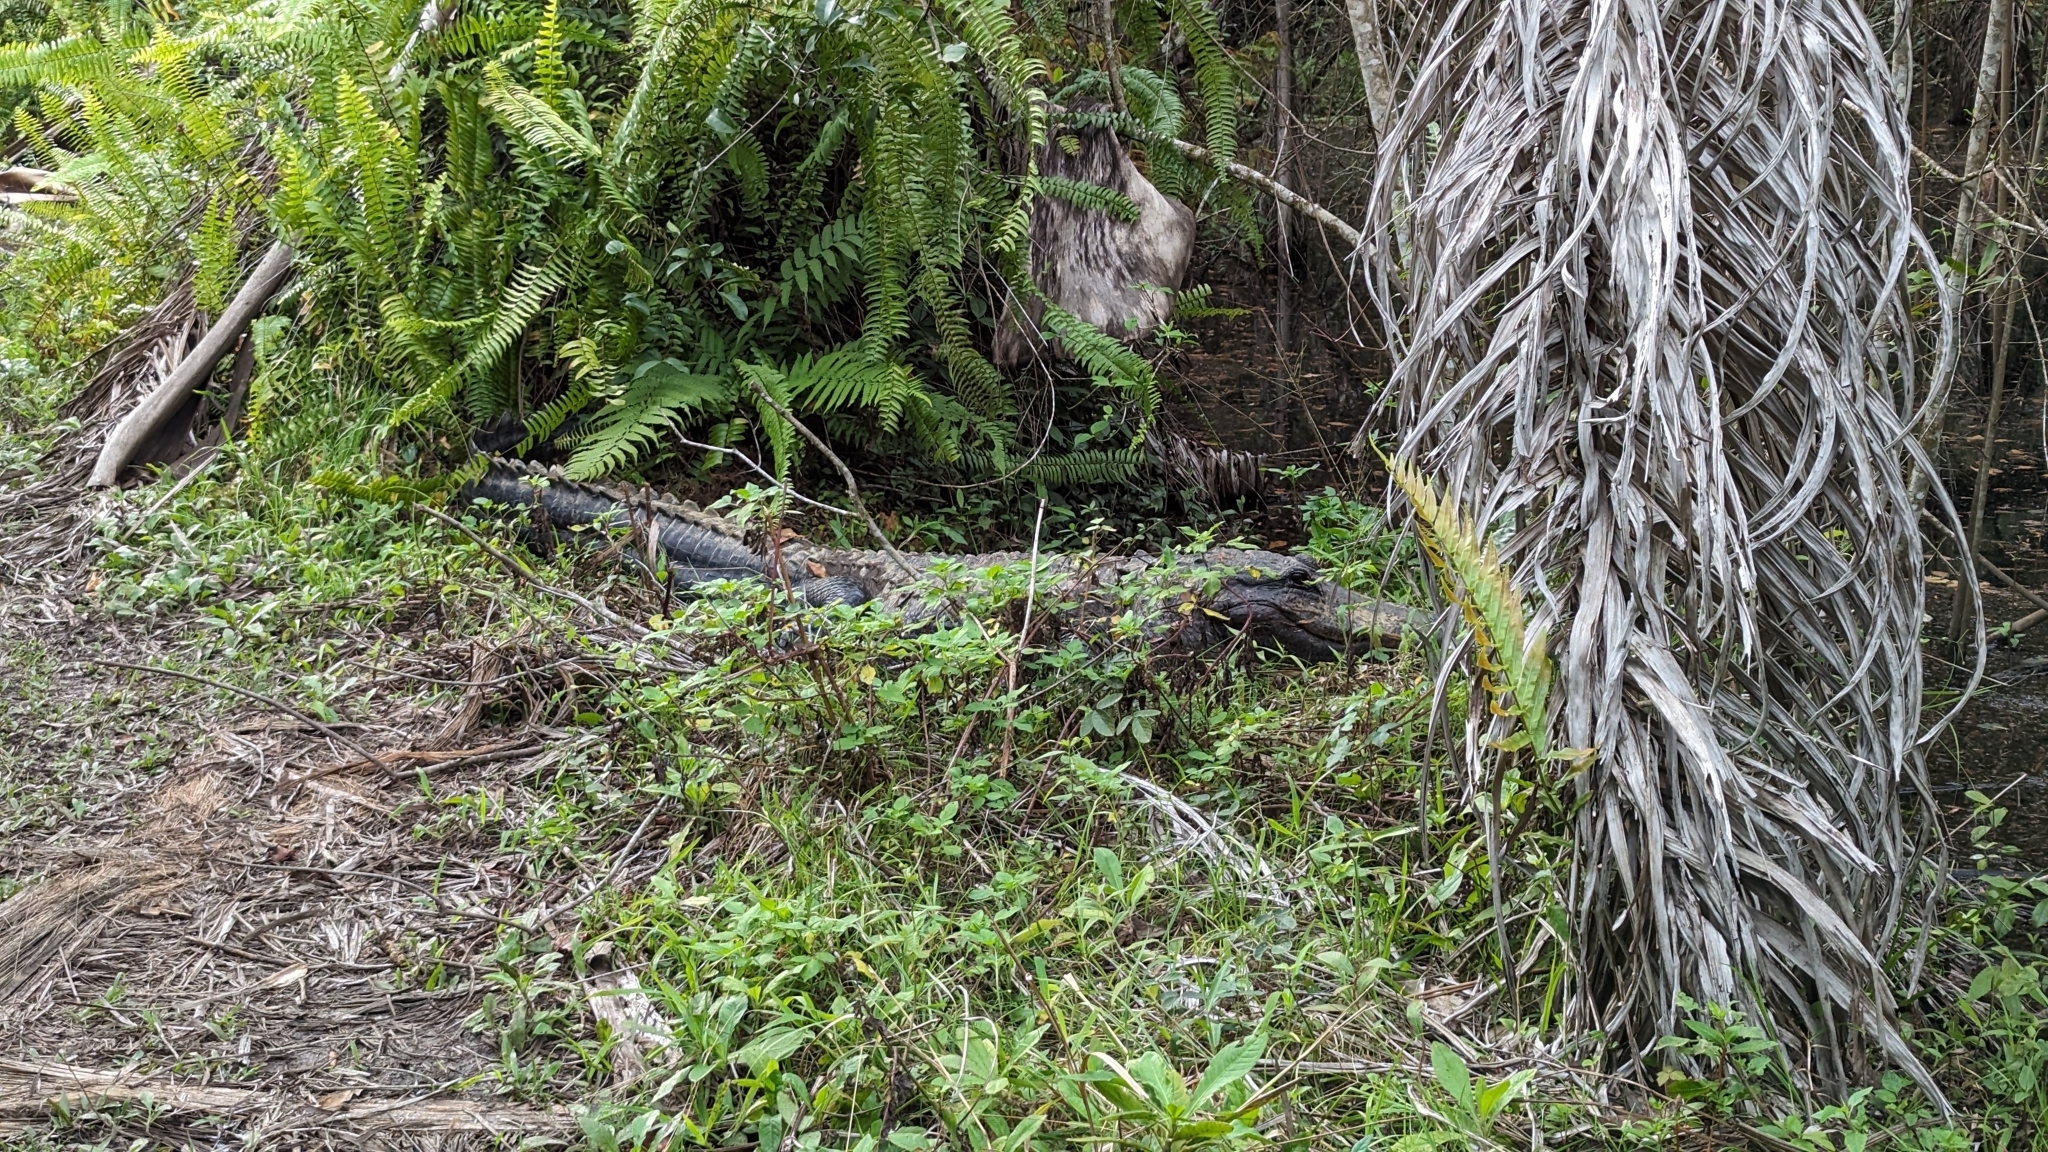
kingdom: Animalia
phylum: Chordata
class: Crocodylia
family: Alligatoridae
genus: Alligator
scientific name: Alligator mississippiensis
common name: American alligator
